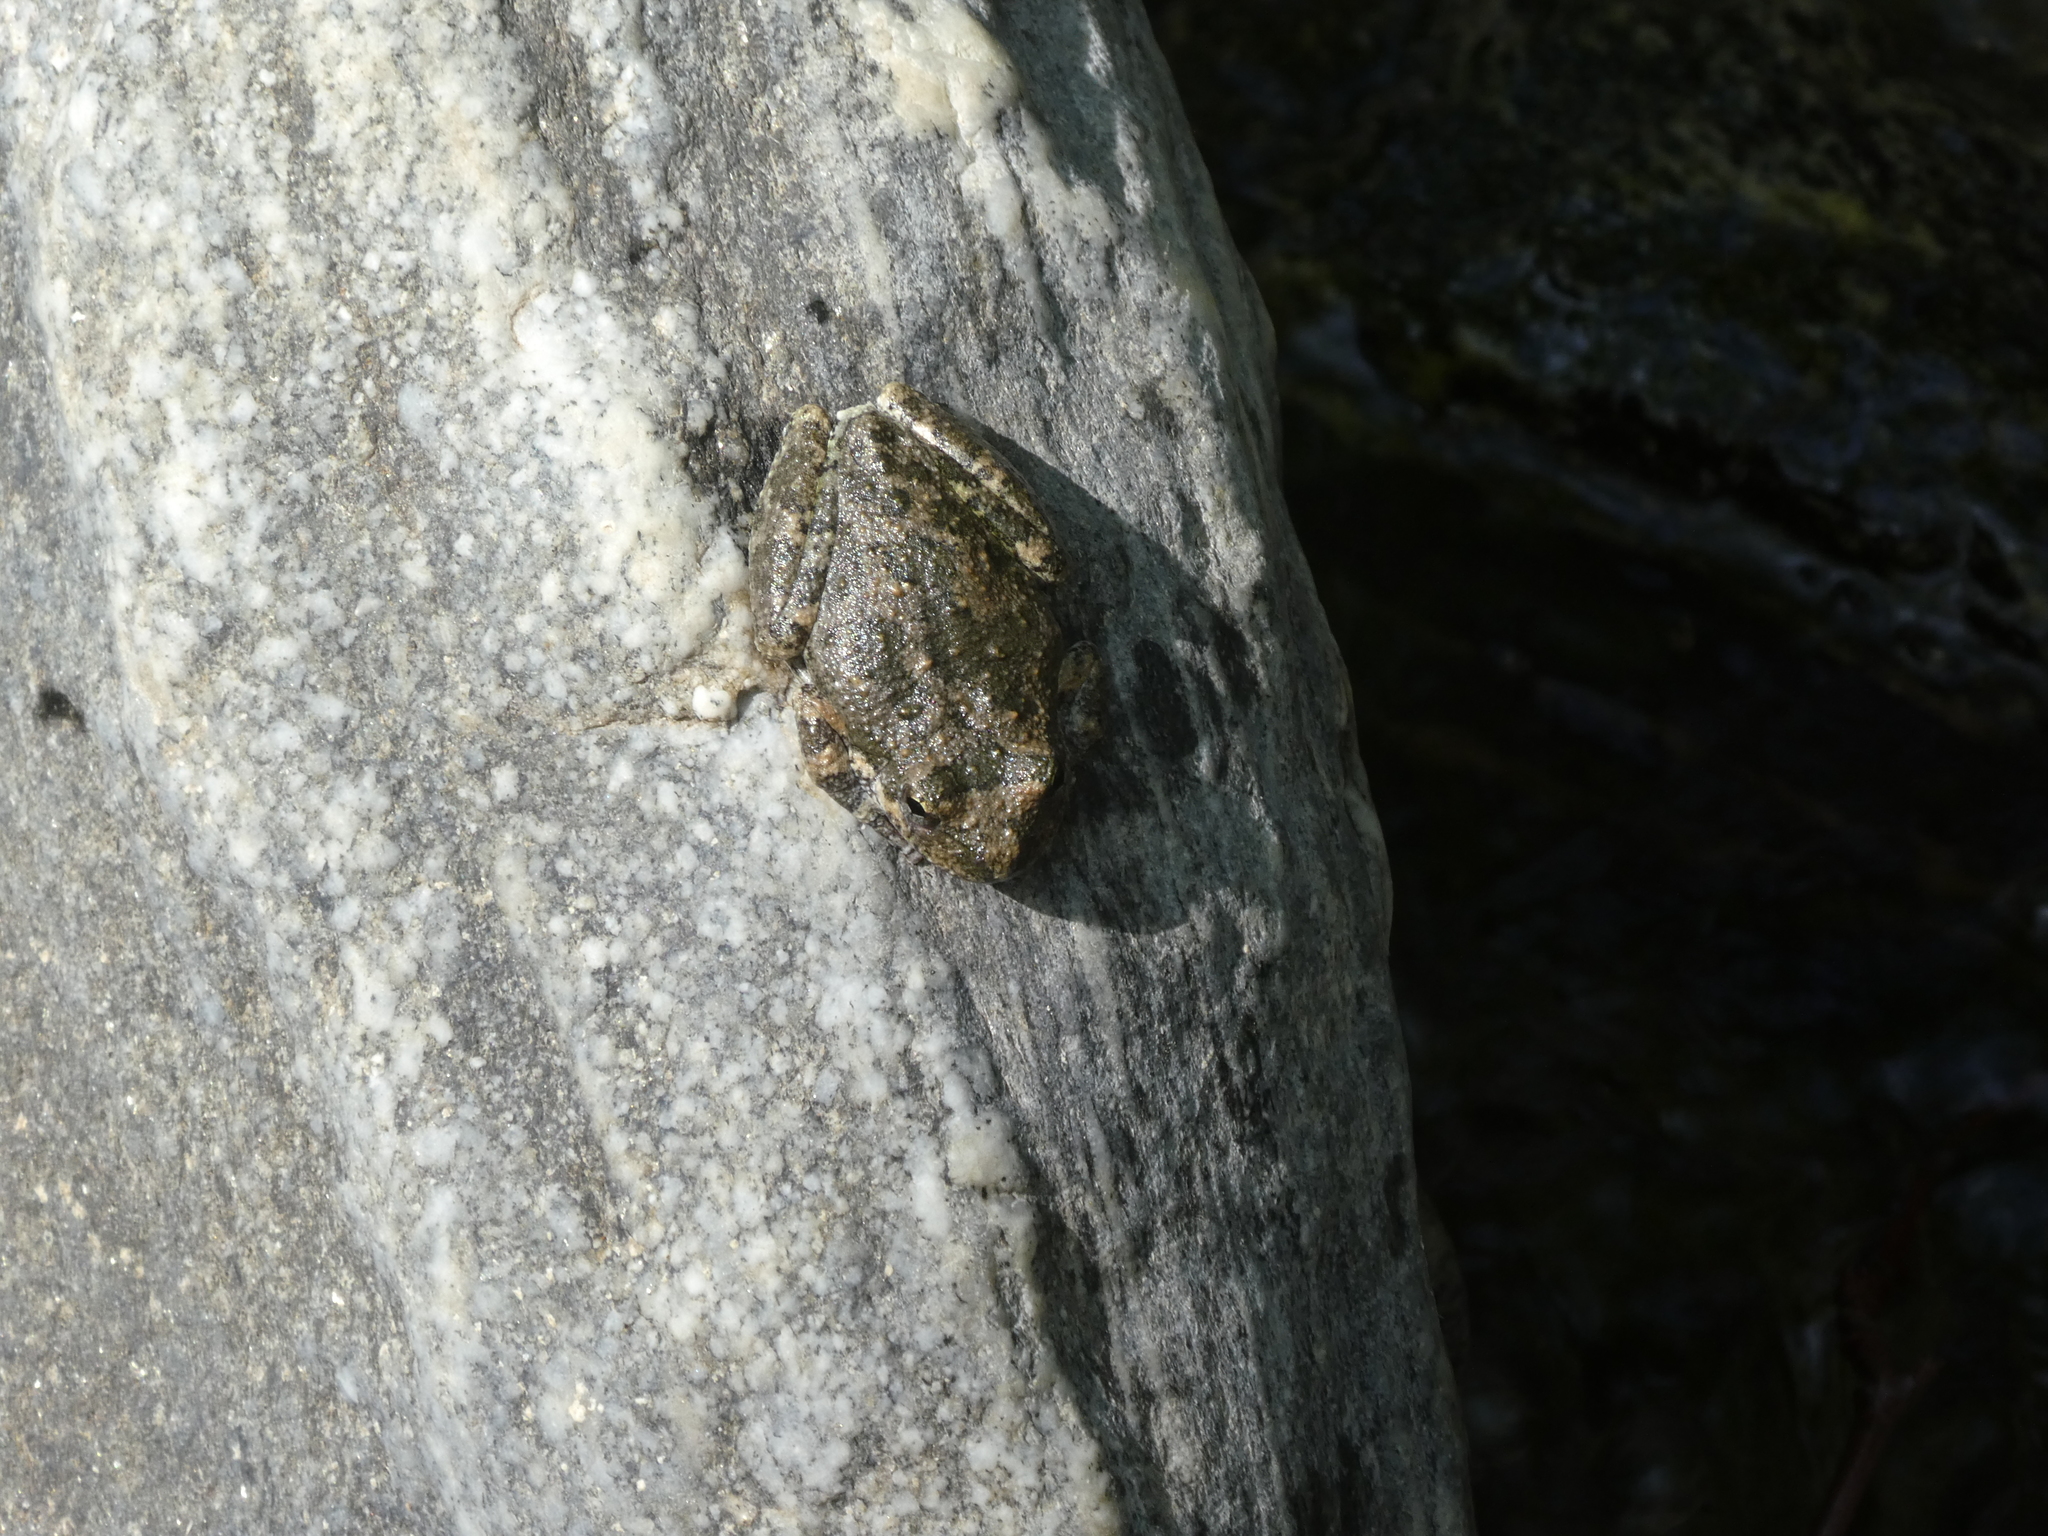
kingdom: Animalia
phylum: Chordata
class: Amphibia
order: Anura
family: Hylidae
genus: Pseudacris
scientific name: Pseudacris cadaverina
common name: California chorus frog
